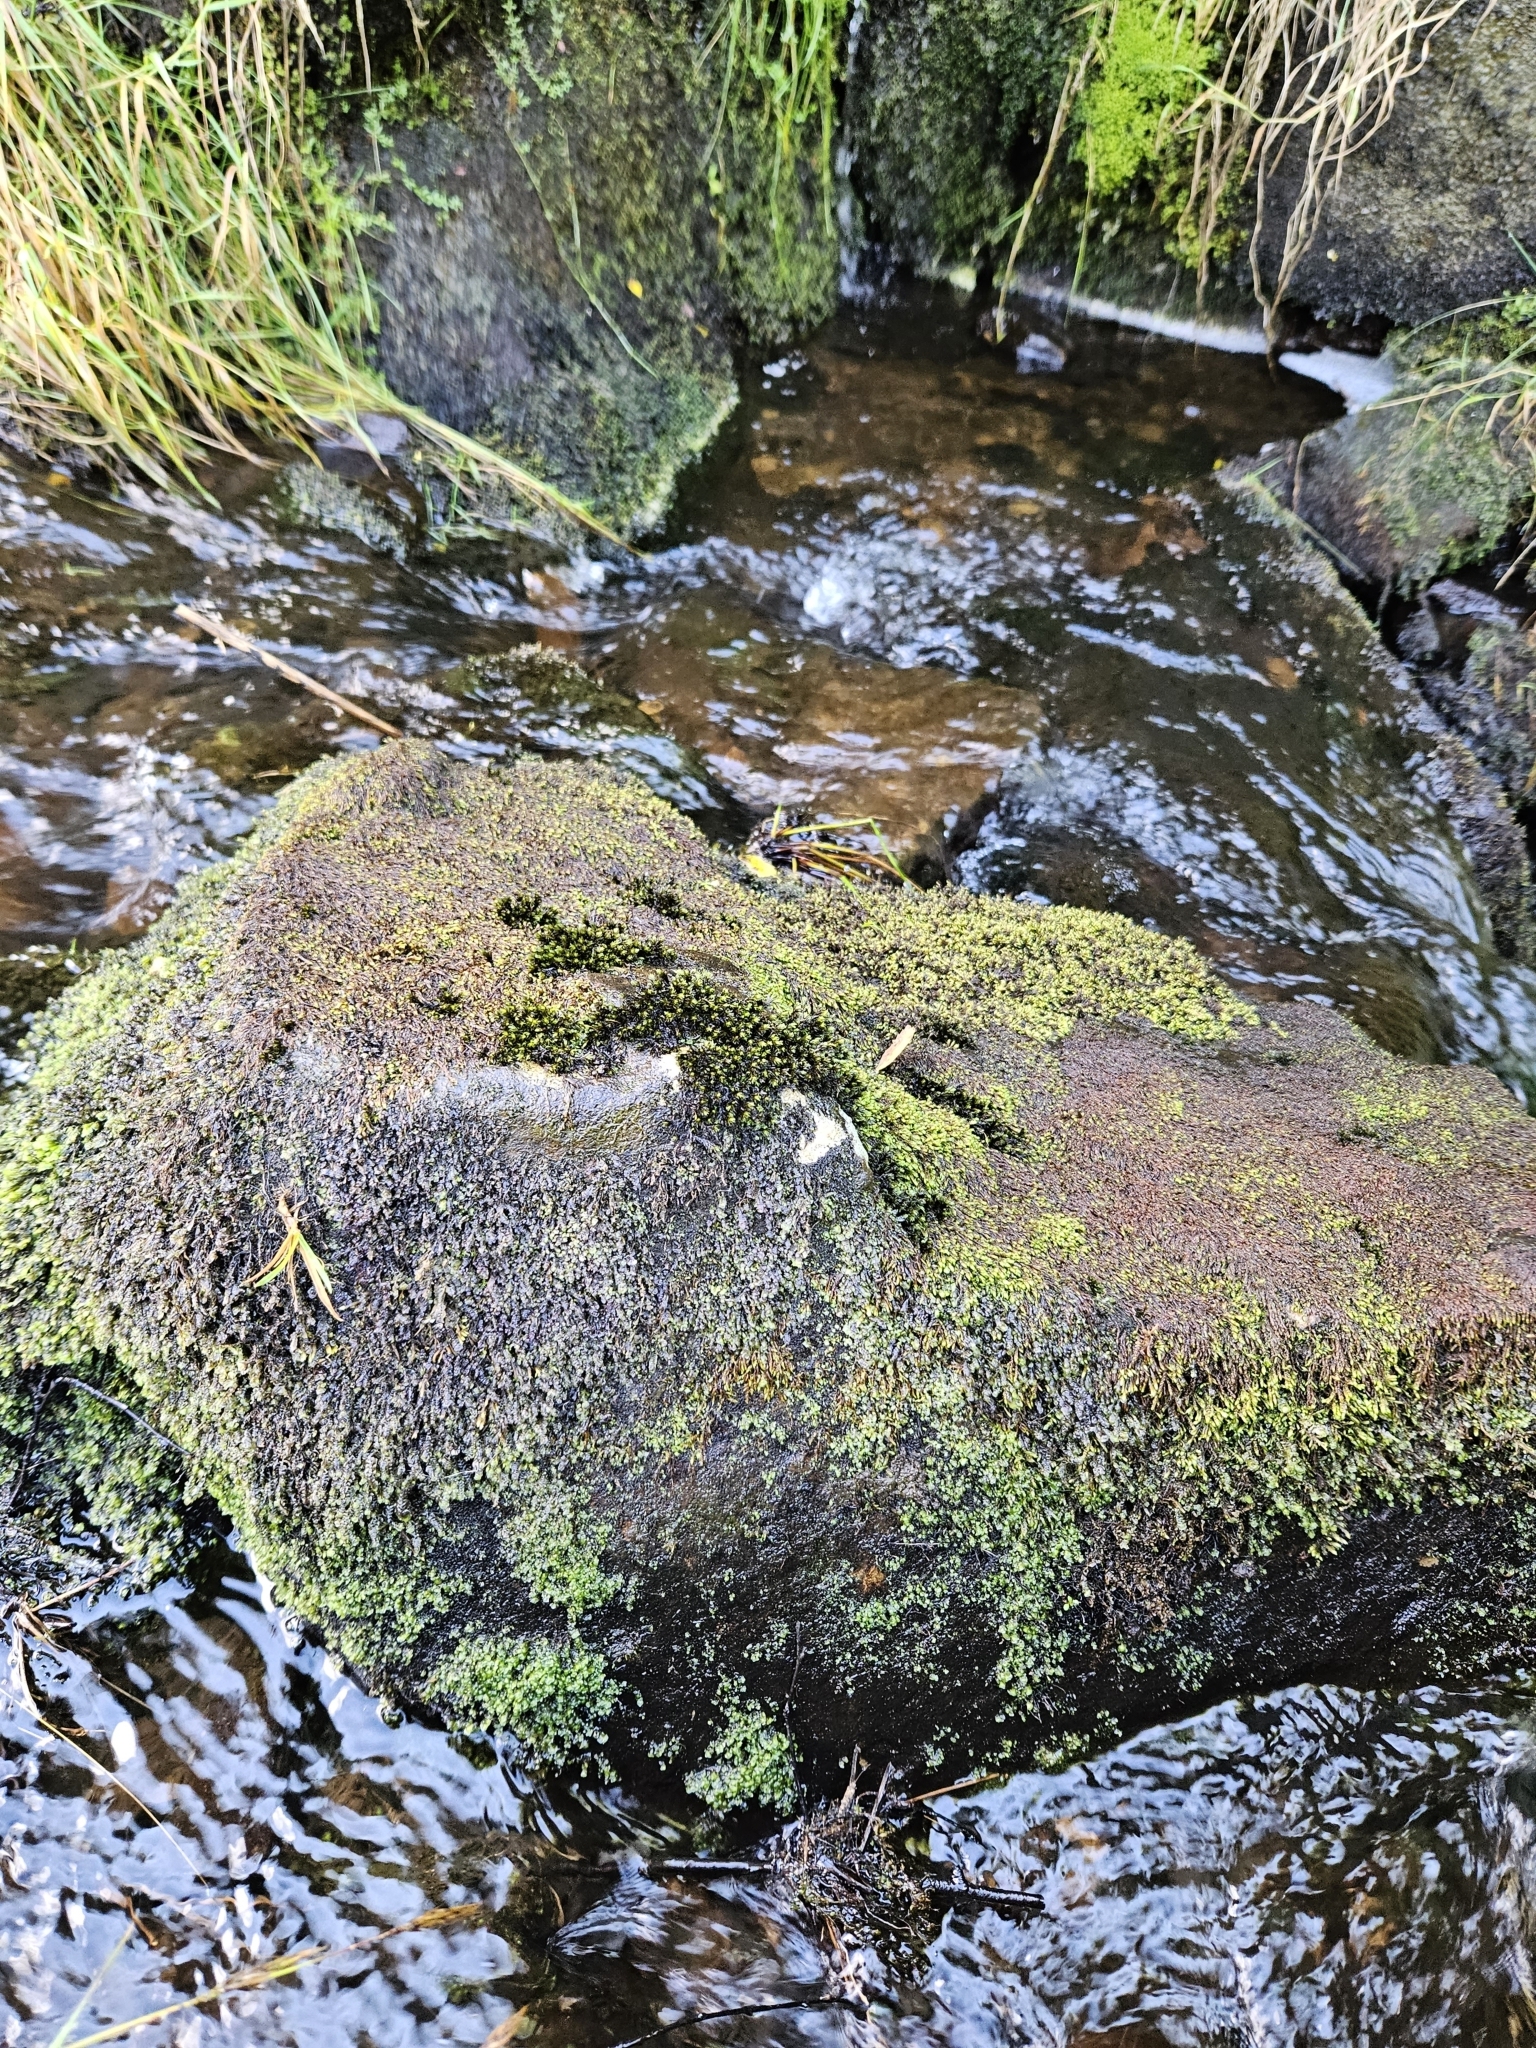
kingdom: Plantae
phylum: Bryophyta
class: Bryopsida
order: Hypnales
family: Myuriaceae
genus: Hyocomium
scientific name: Hyocomium armoricum
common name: Flagellate feather-moss
